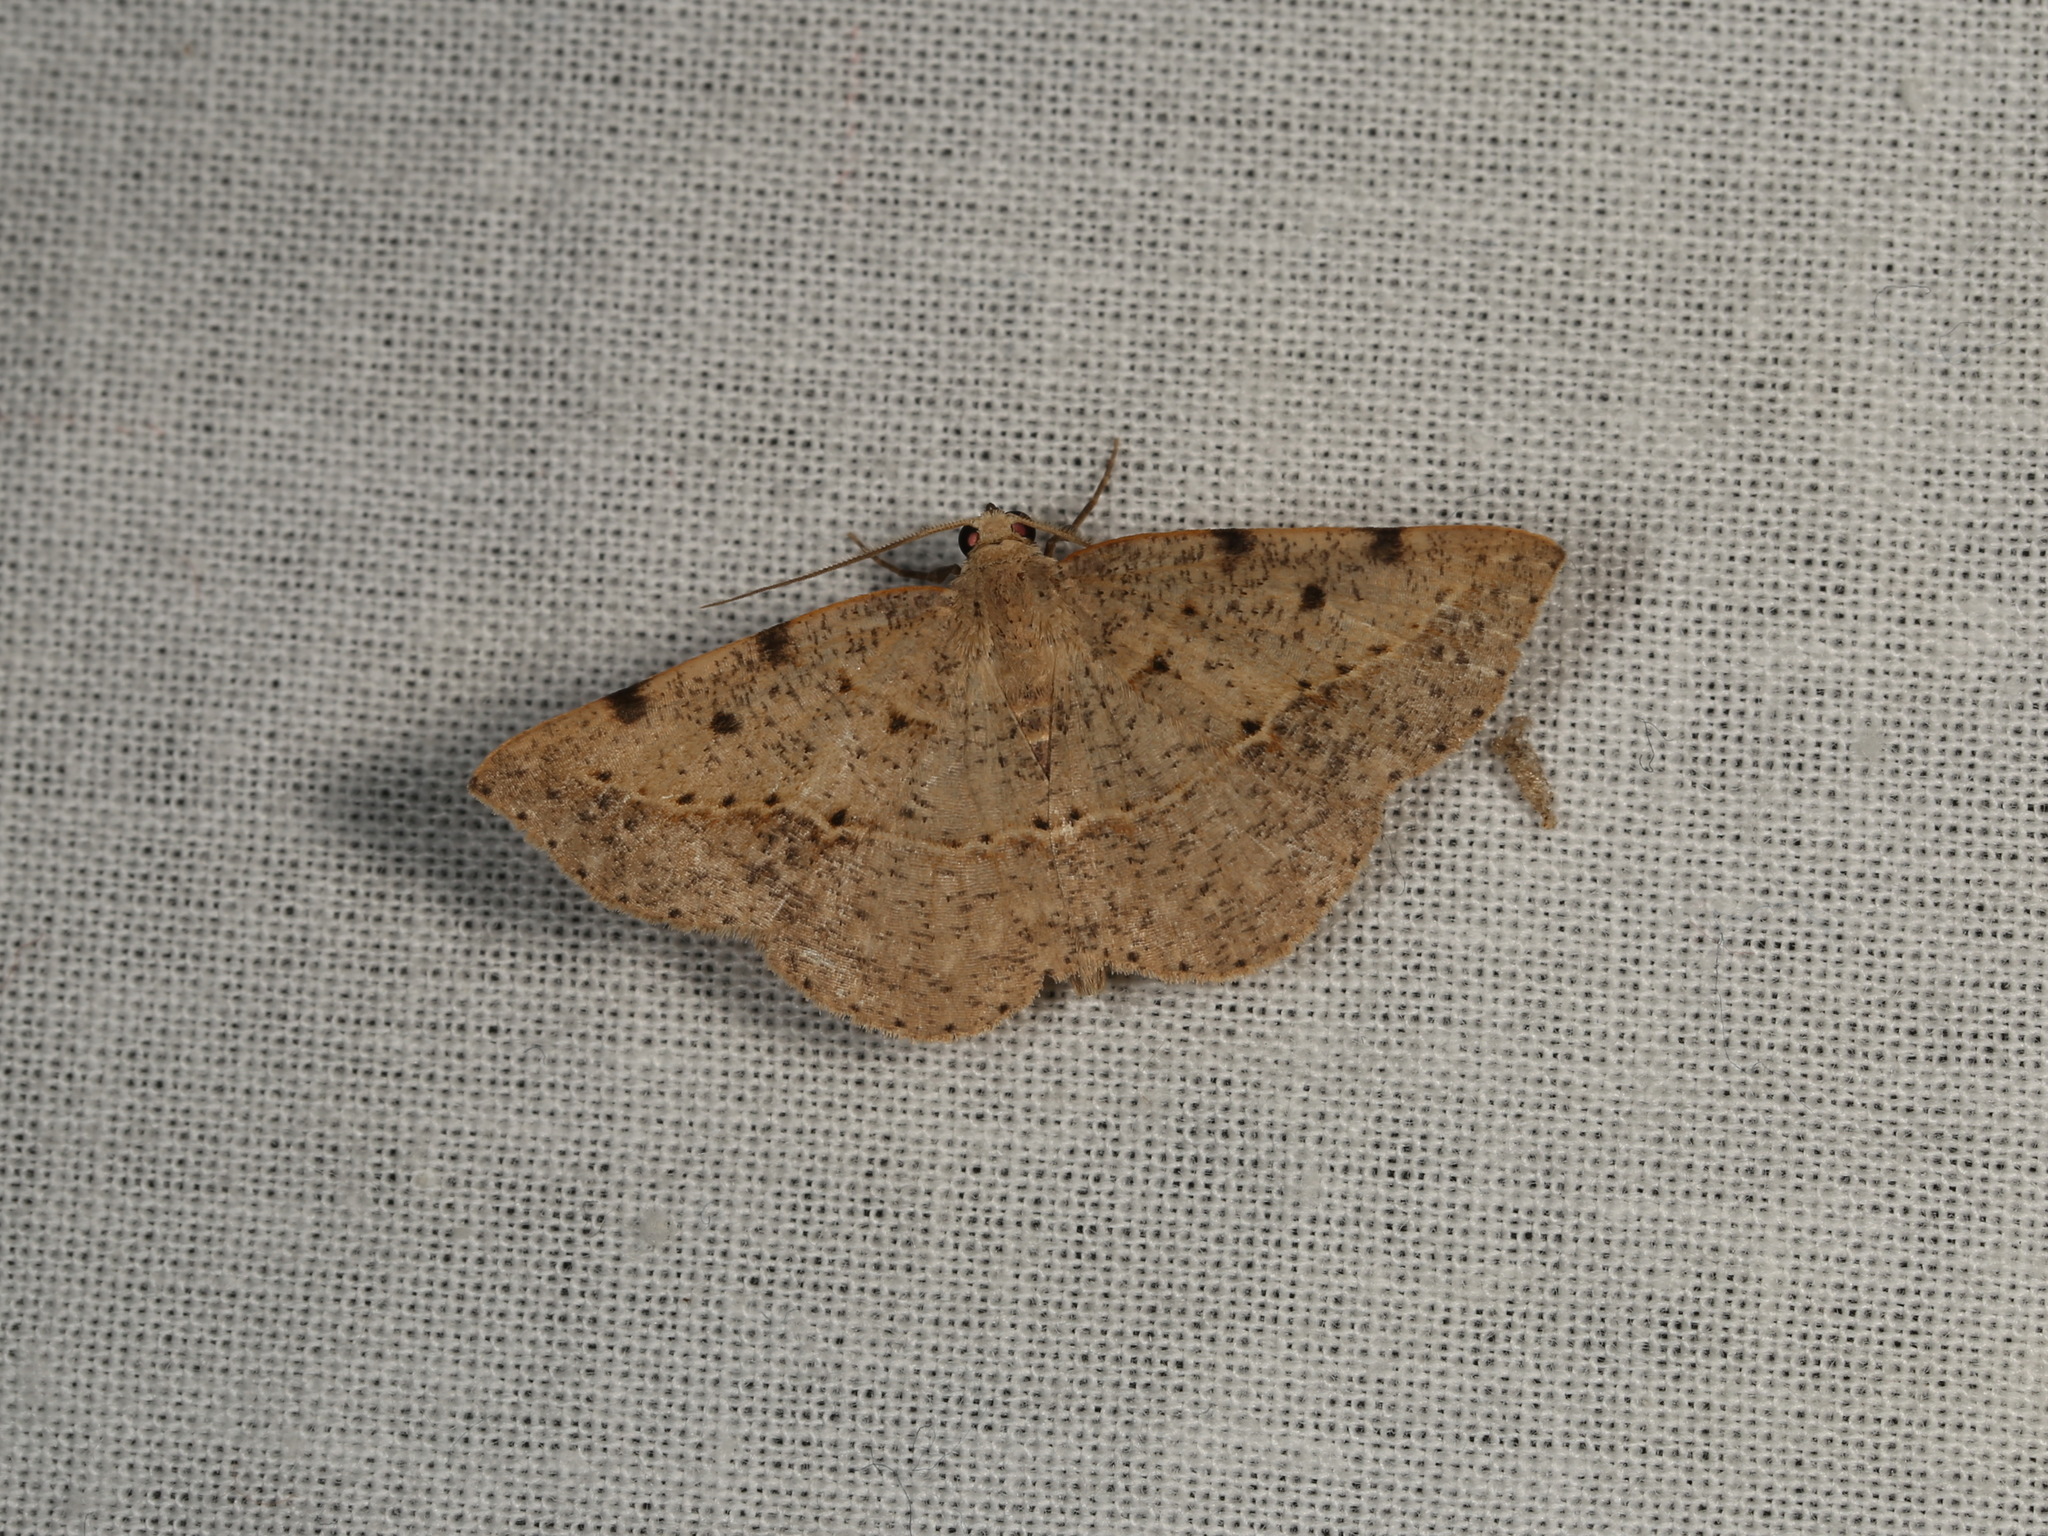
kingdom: Animalia
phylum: Arthropoda
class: Insecta
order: Lepidoptera
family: Geometridae
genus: Taxeotis
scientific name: Taxeotis epigaea
